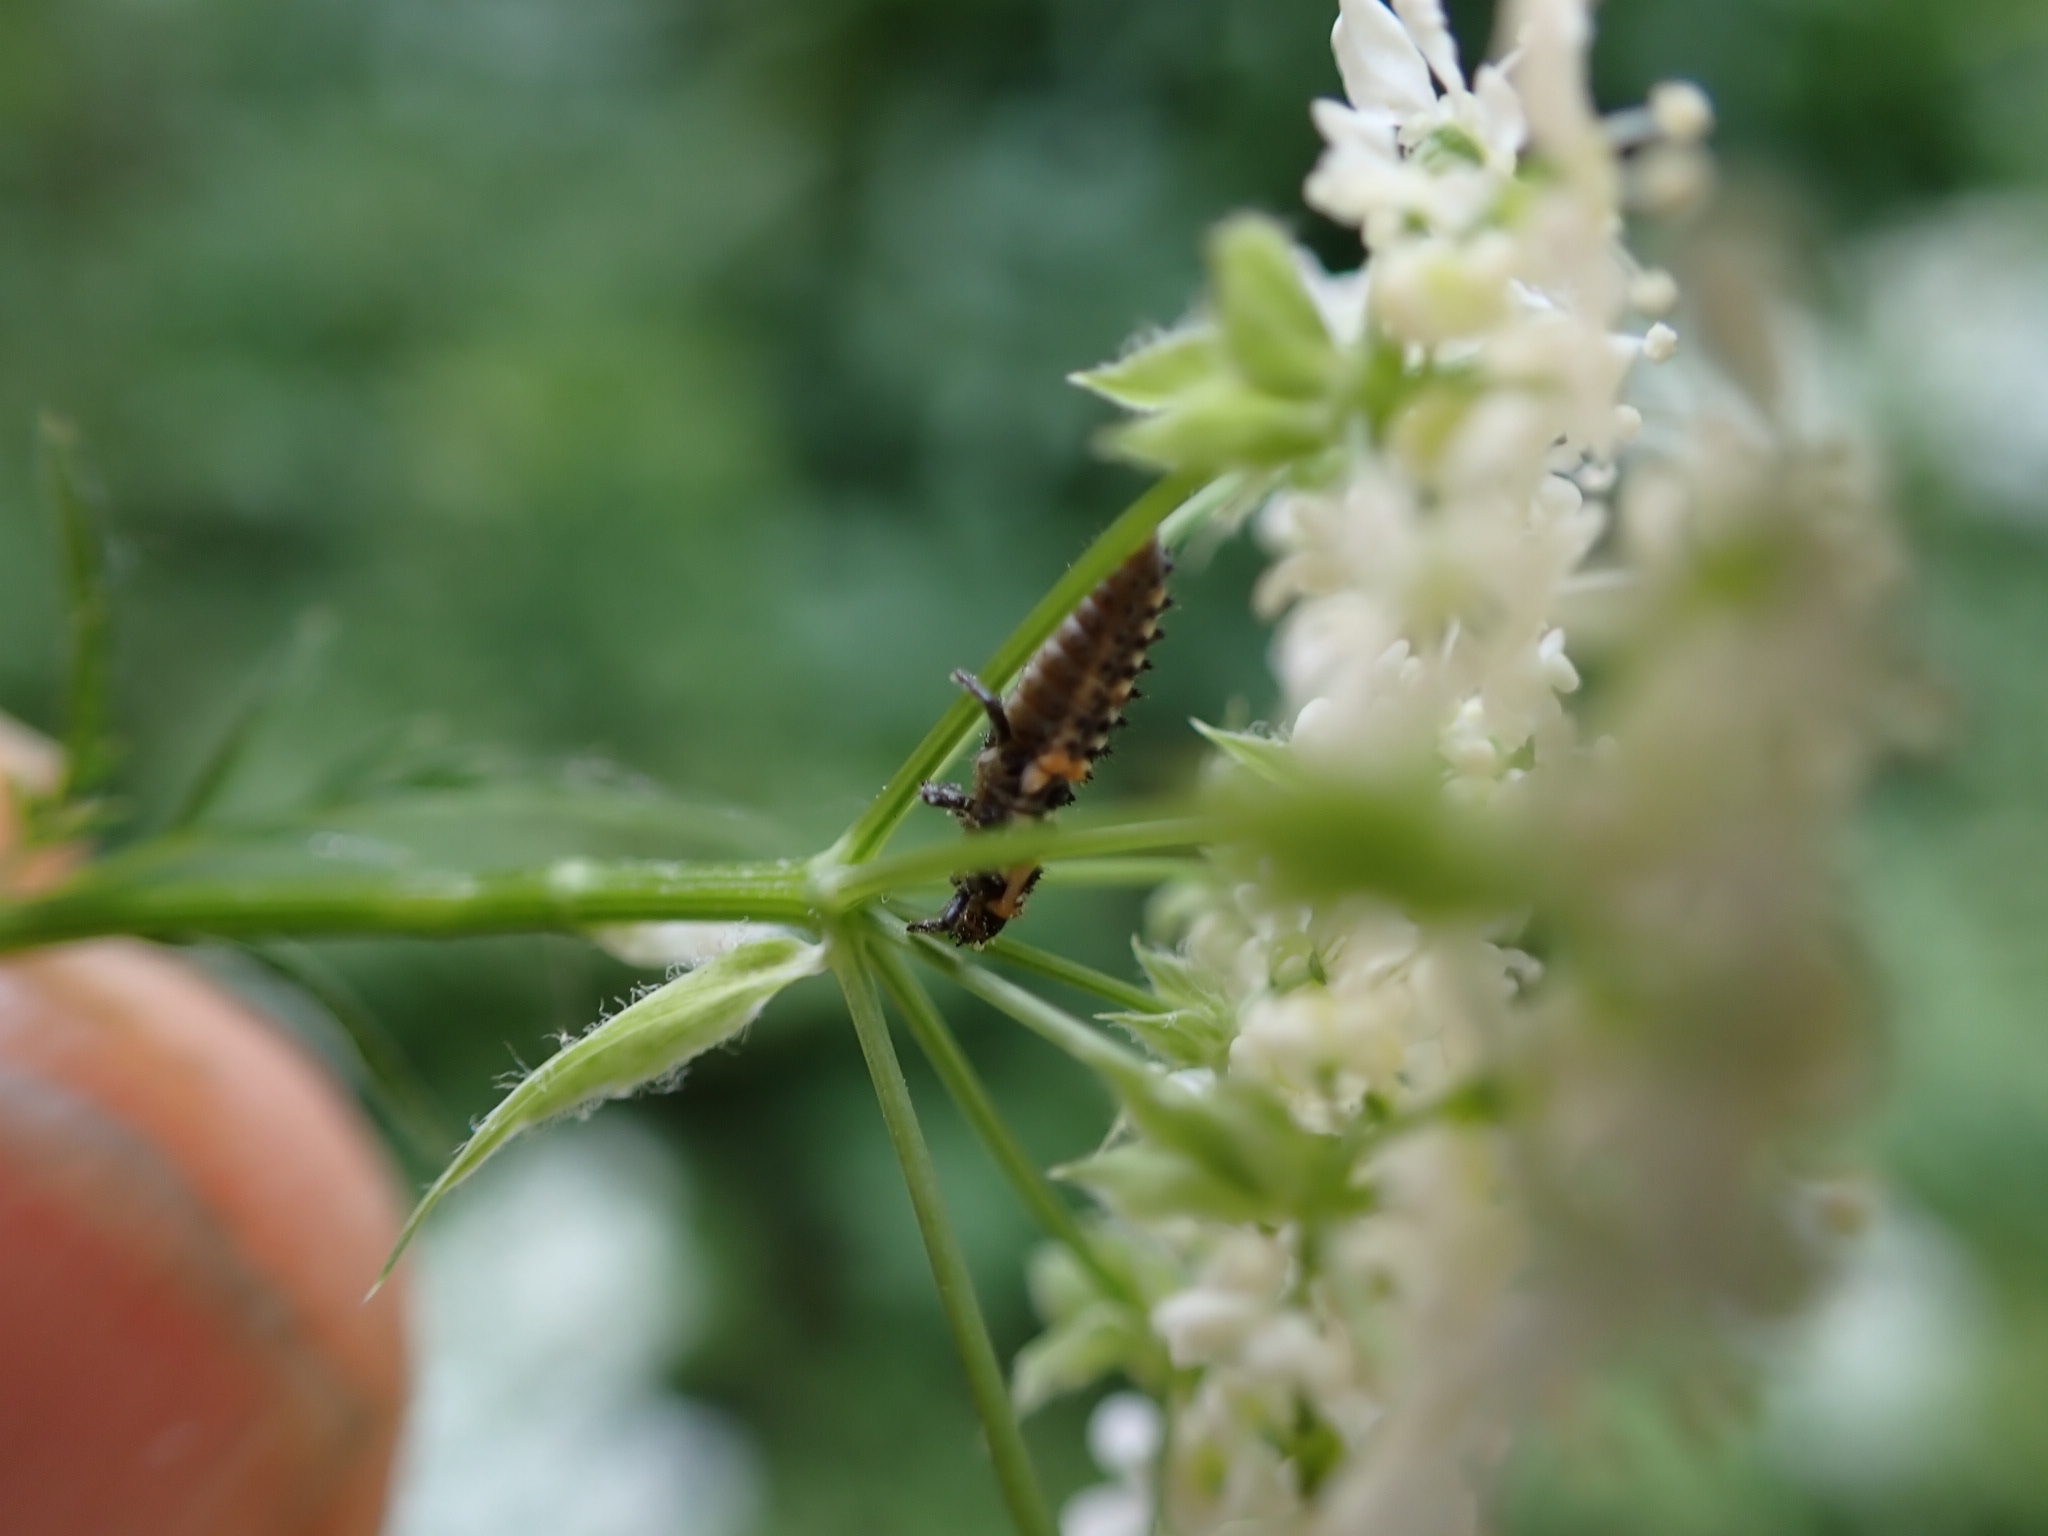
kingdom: Animalia
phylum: Arthropoda
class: Insecta
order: Coleoptera
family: Coccinellidae
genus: Hippodamia
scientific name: Hippodamia variegata
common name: Ladybird beetle
